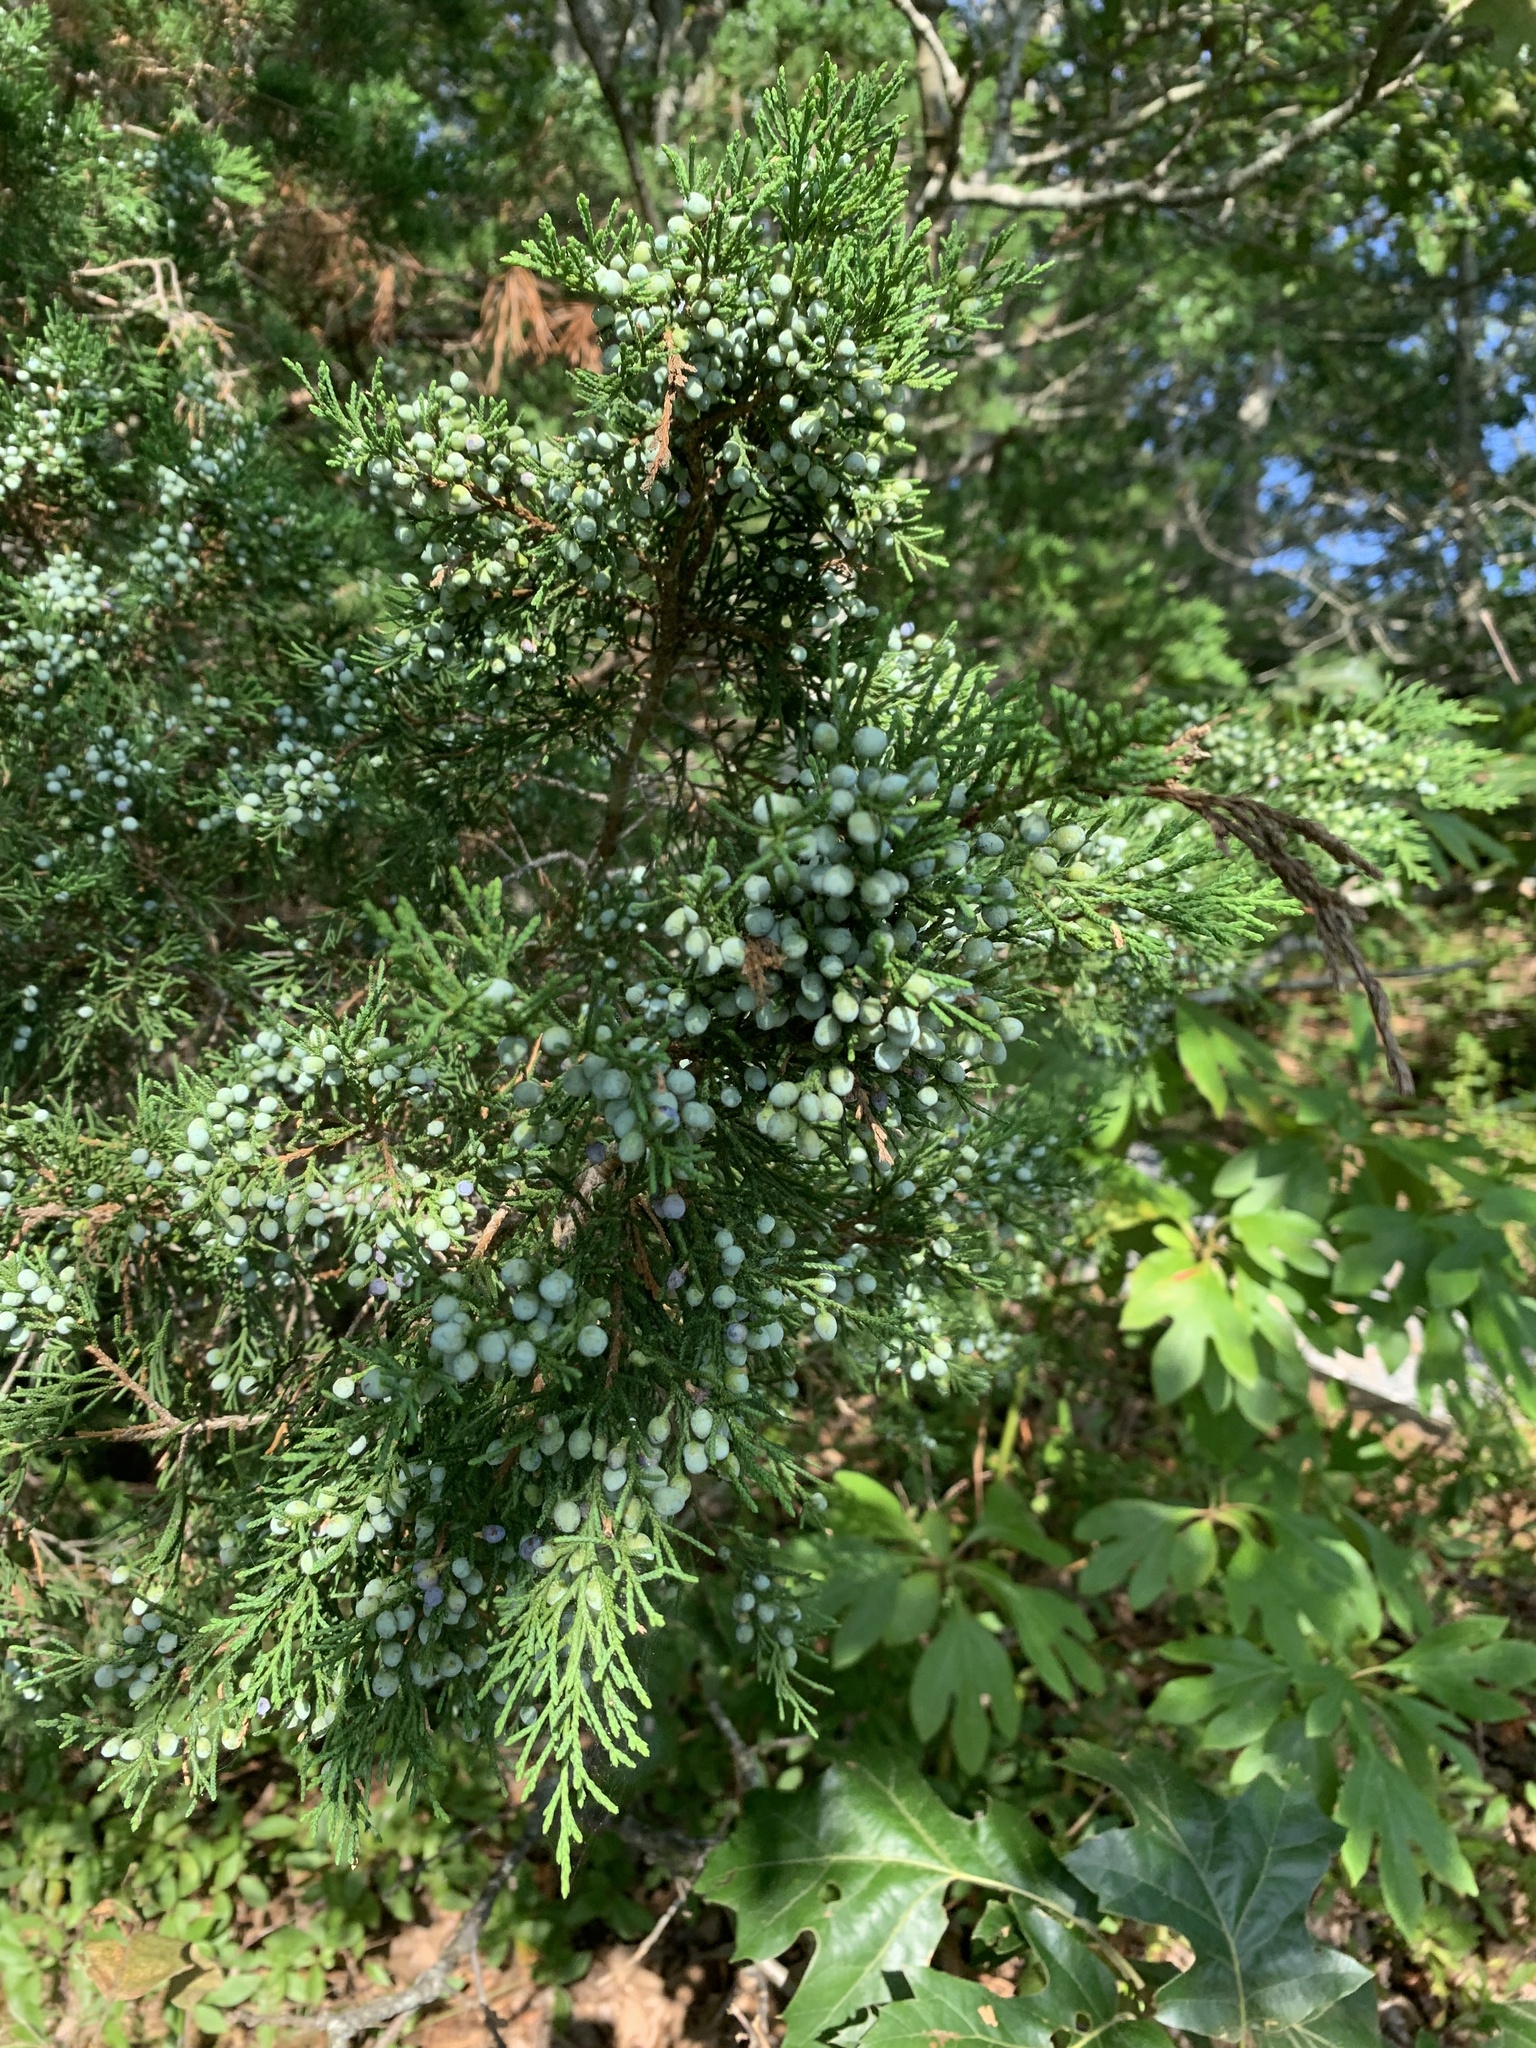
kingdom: Plantae
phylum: Tracheophyta
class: Pinopsida
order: Pinales
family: Cupressaceae
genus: Juniperus
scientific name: Juniperus virginiana
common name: Red juniper
